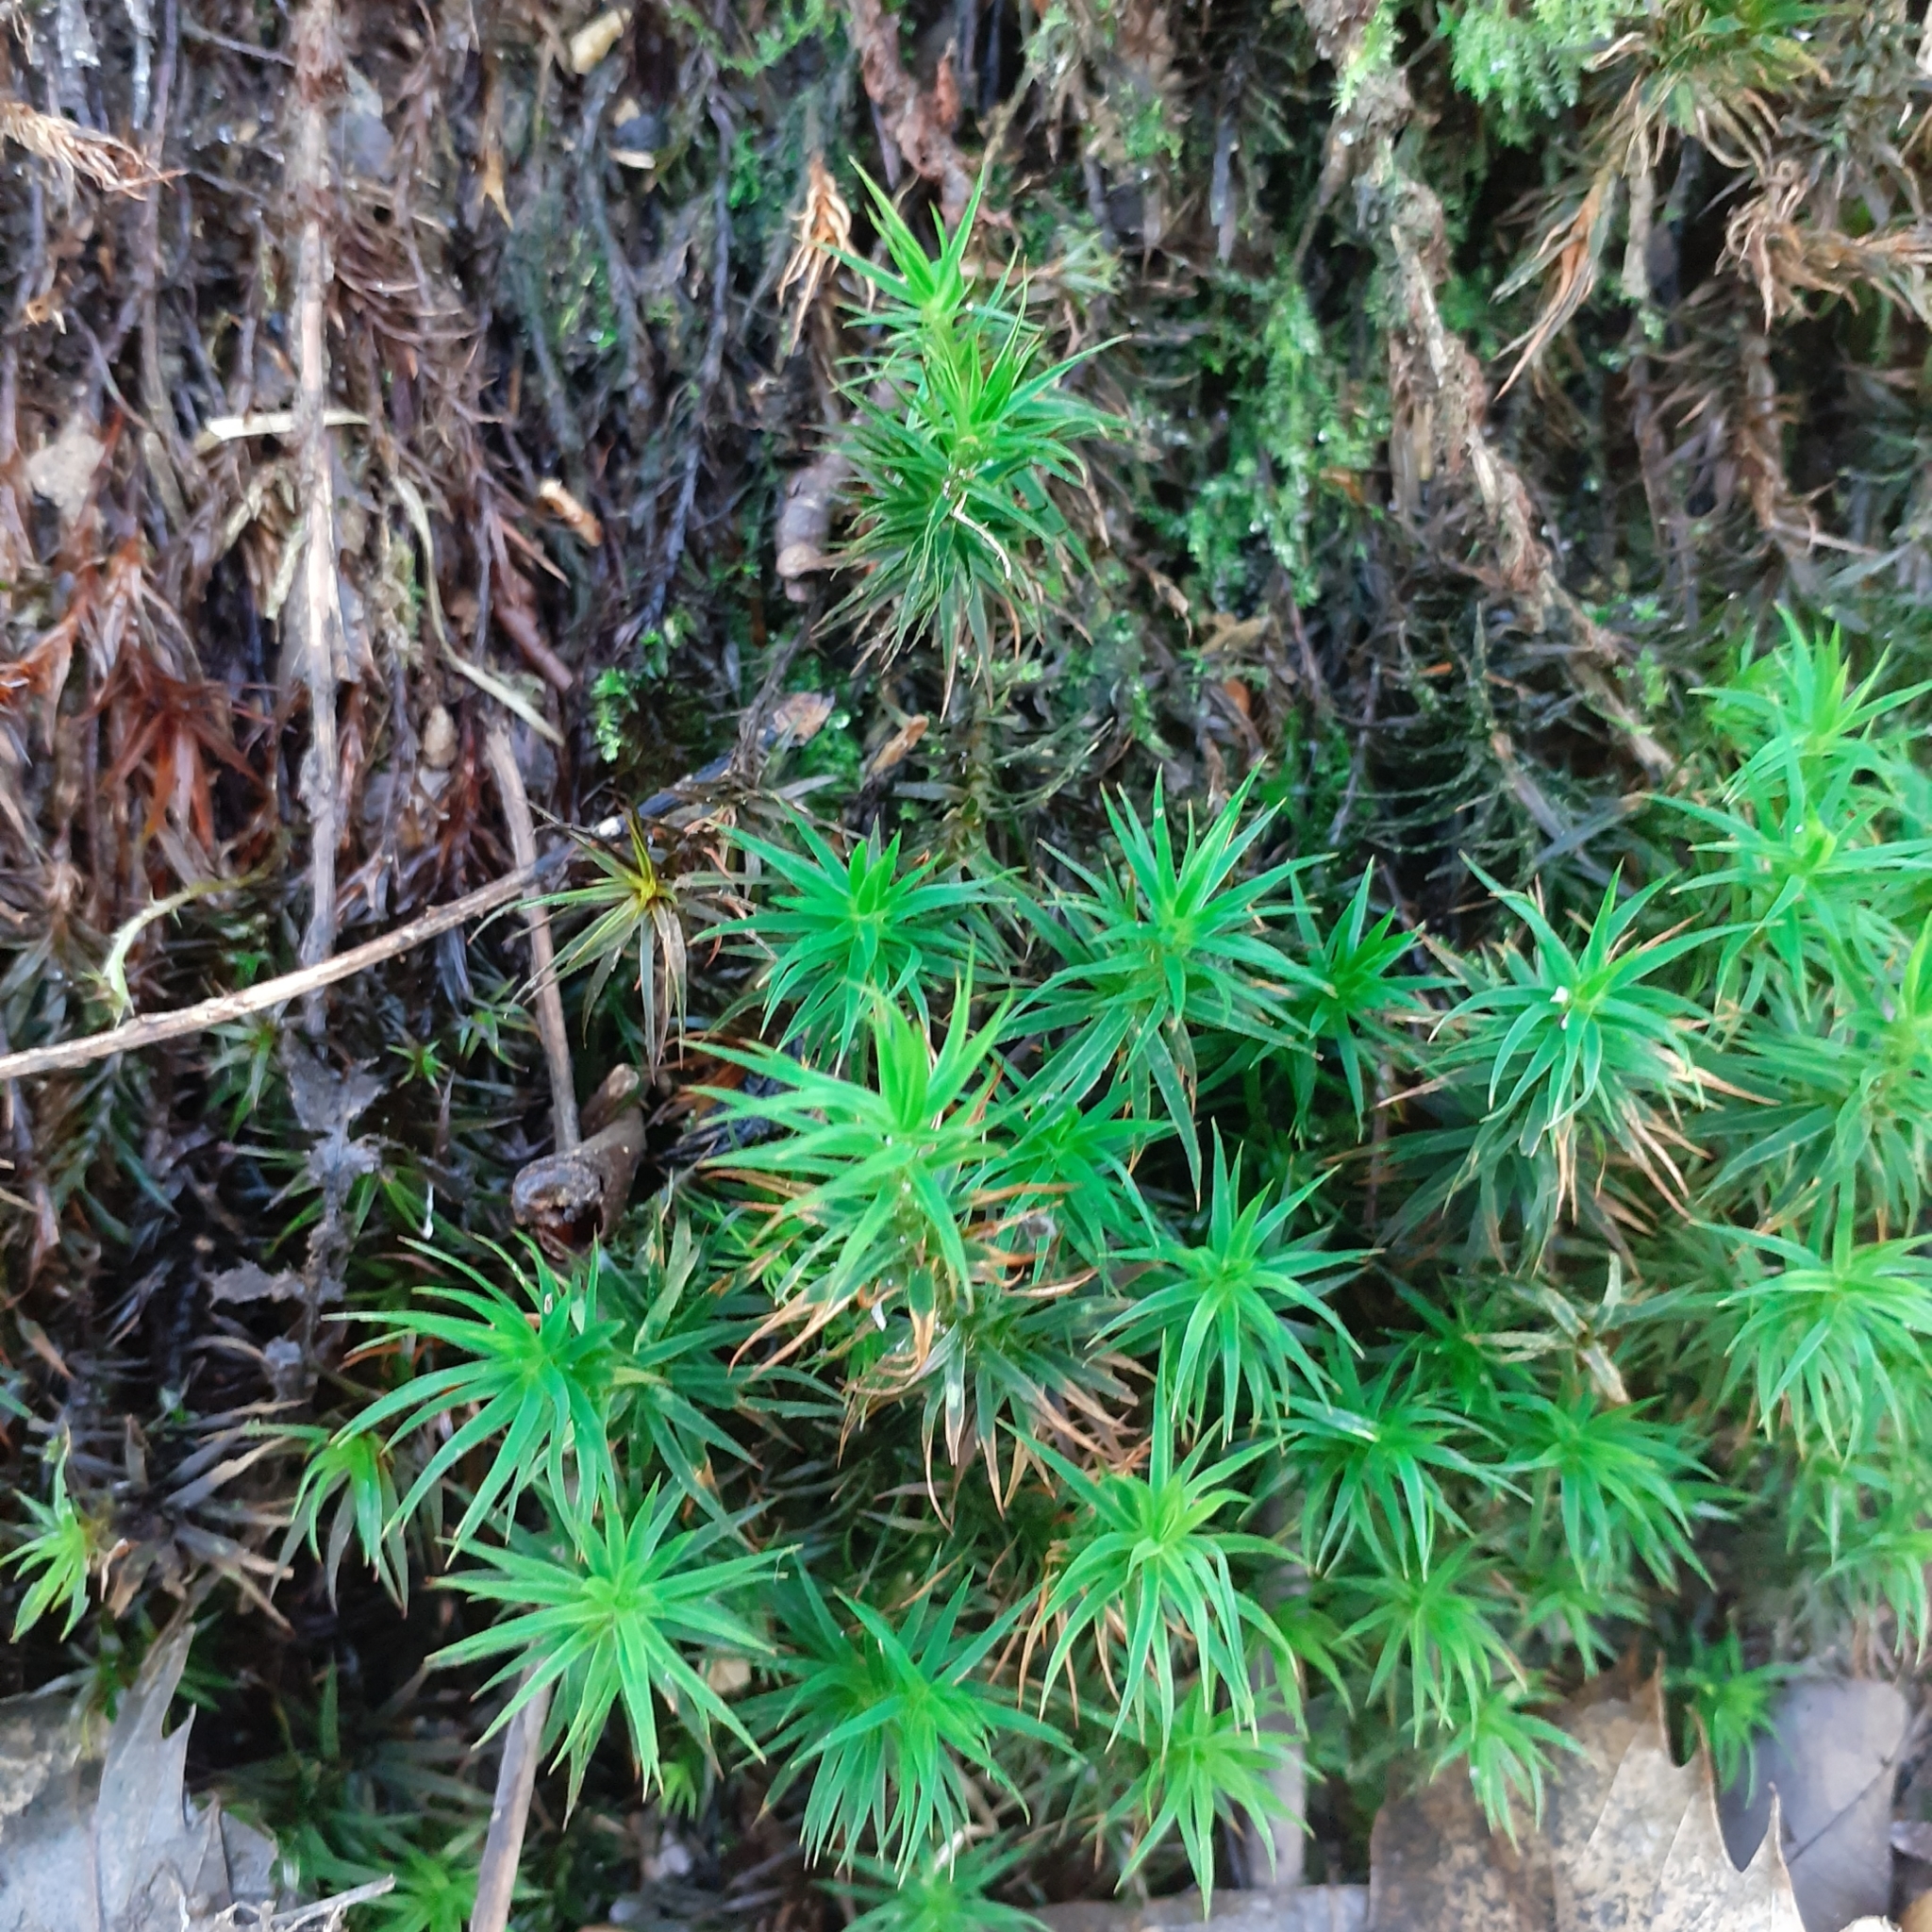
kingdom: Plantae
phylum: Bryophyta
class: Polytrichopsida
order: Polytrichales
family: Polytrichaceae
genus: Polytrichum
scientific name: Polytrichum formosum
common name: Bank haircap moss
